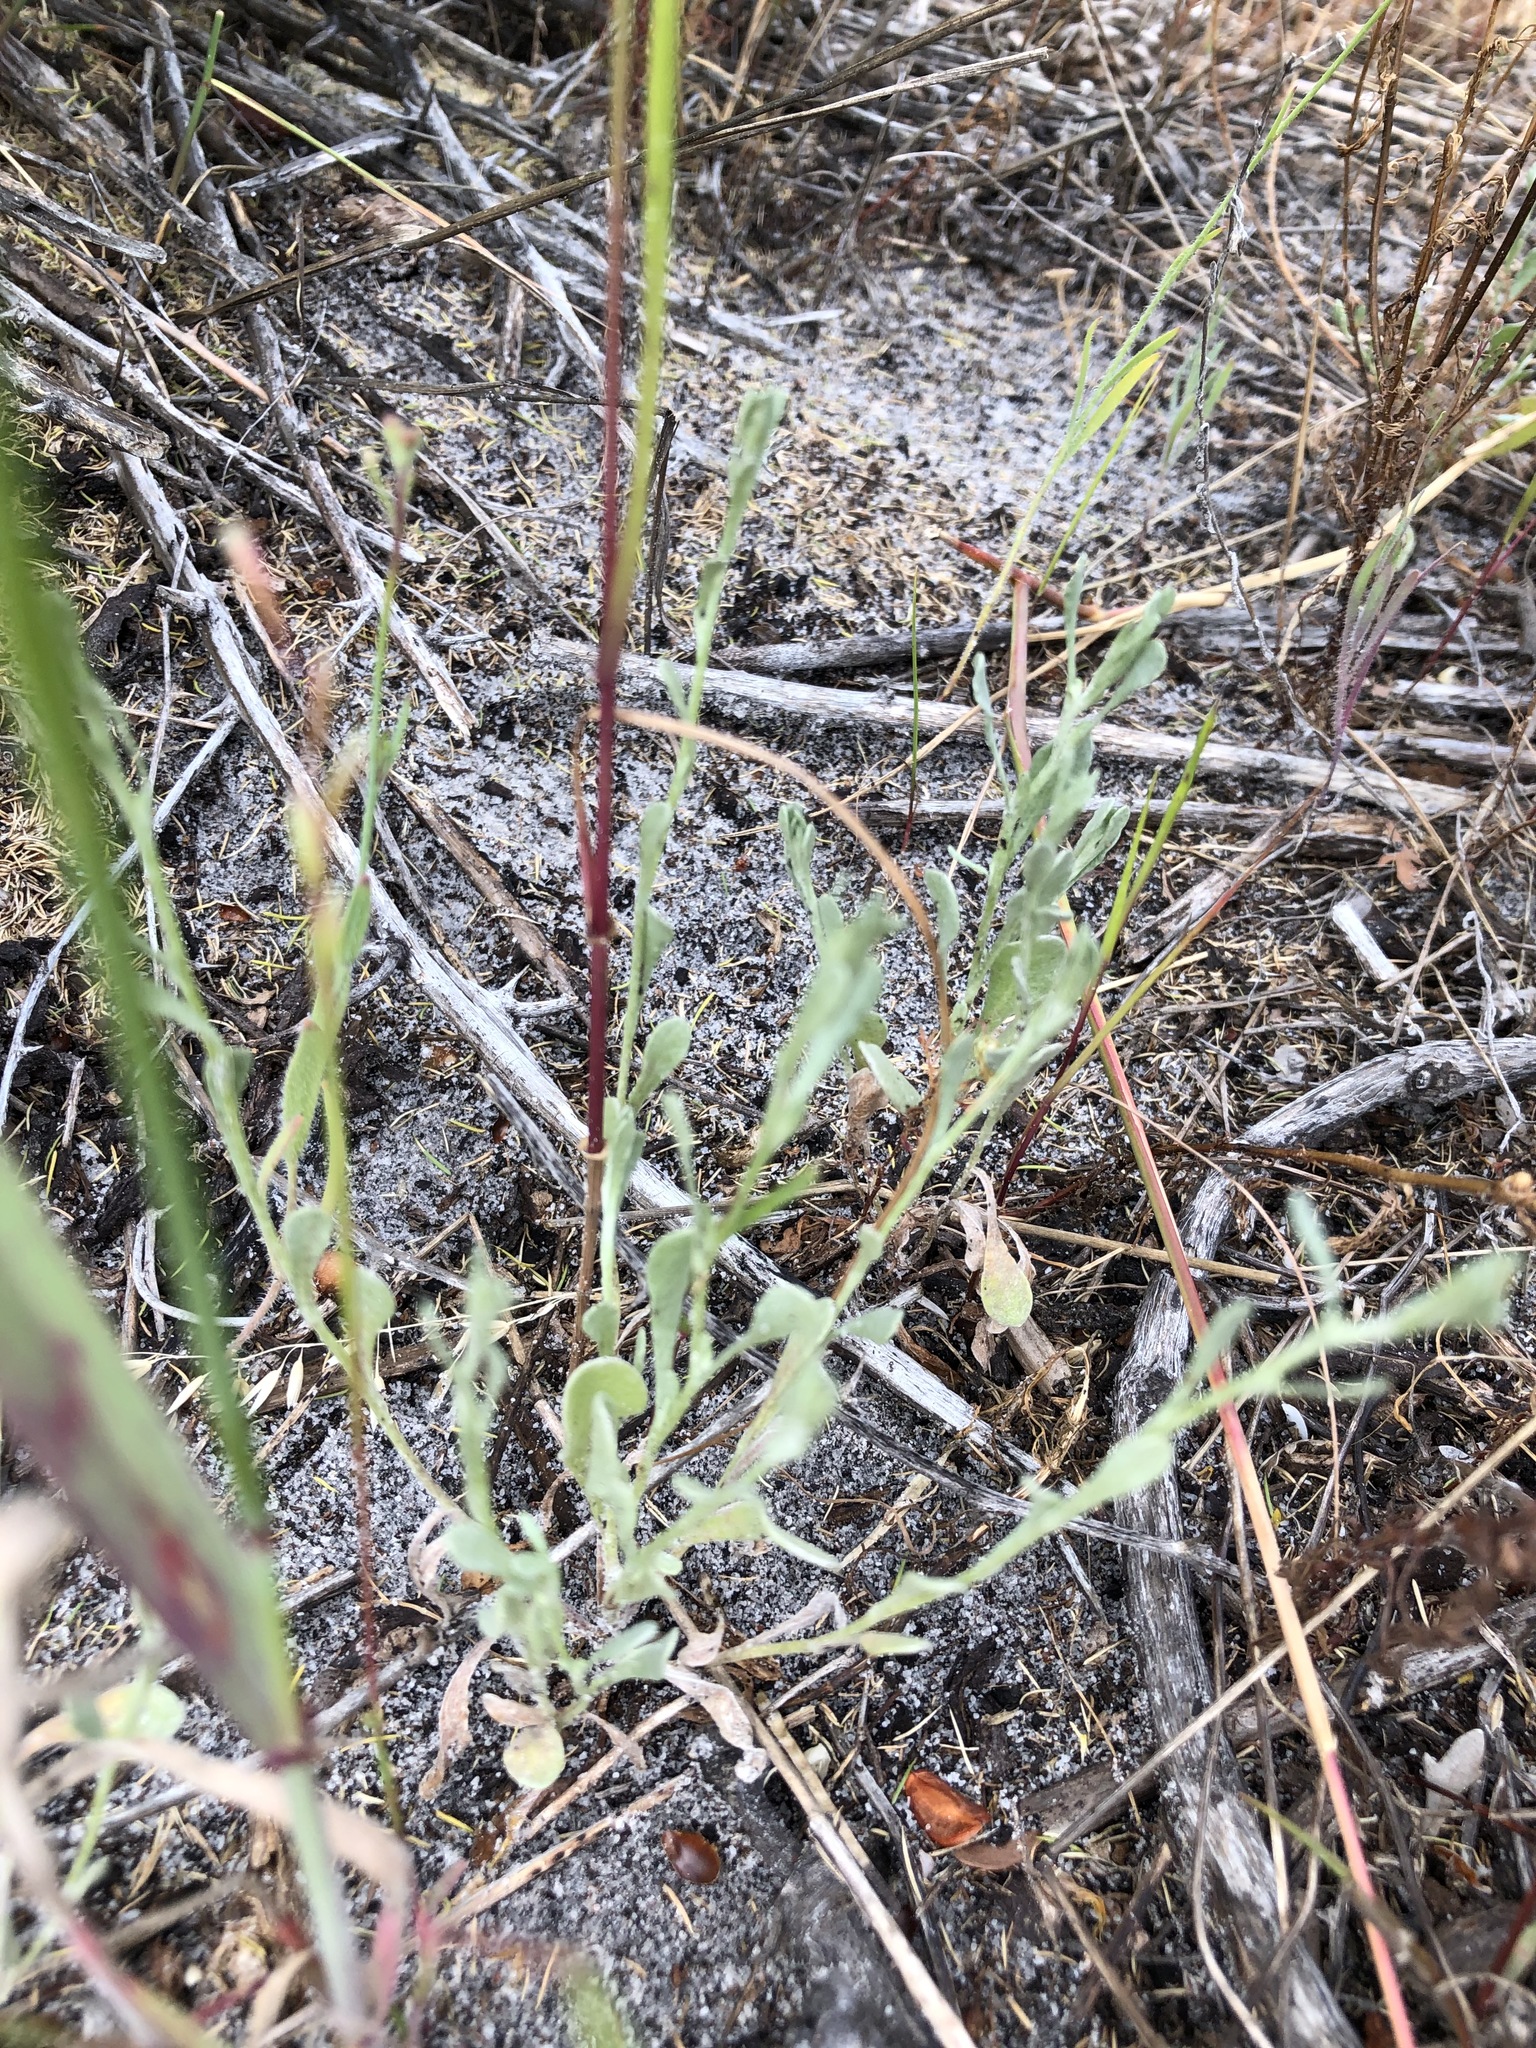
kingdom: Plantae
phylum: Tracheophyta
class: Magnoliopsida
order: Brassicales
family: Brassicaceae
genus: Heliophila
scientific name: Heliophila africana
